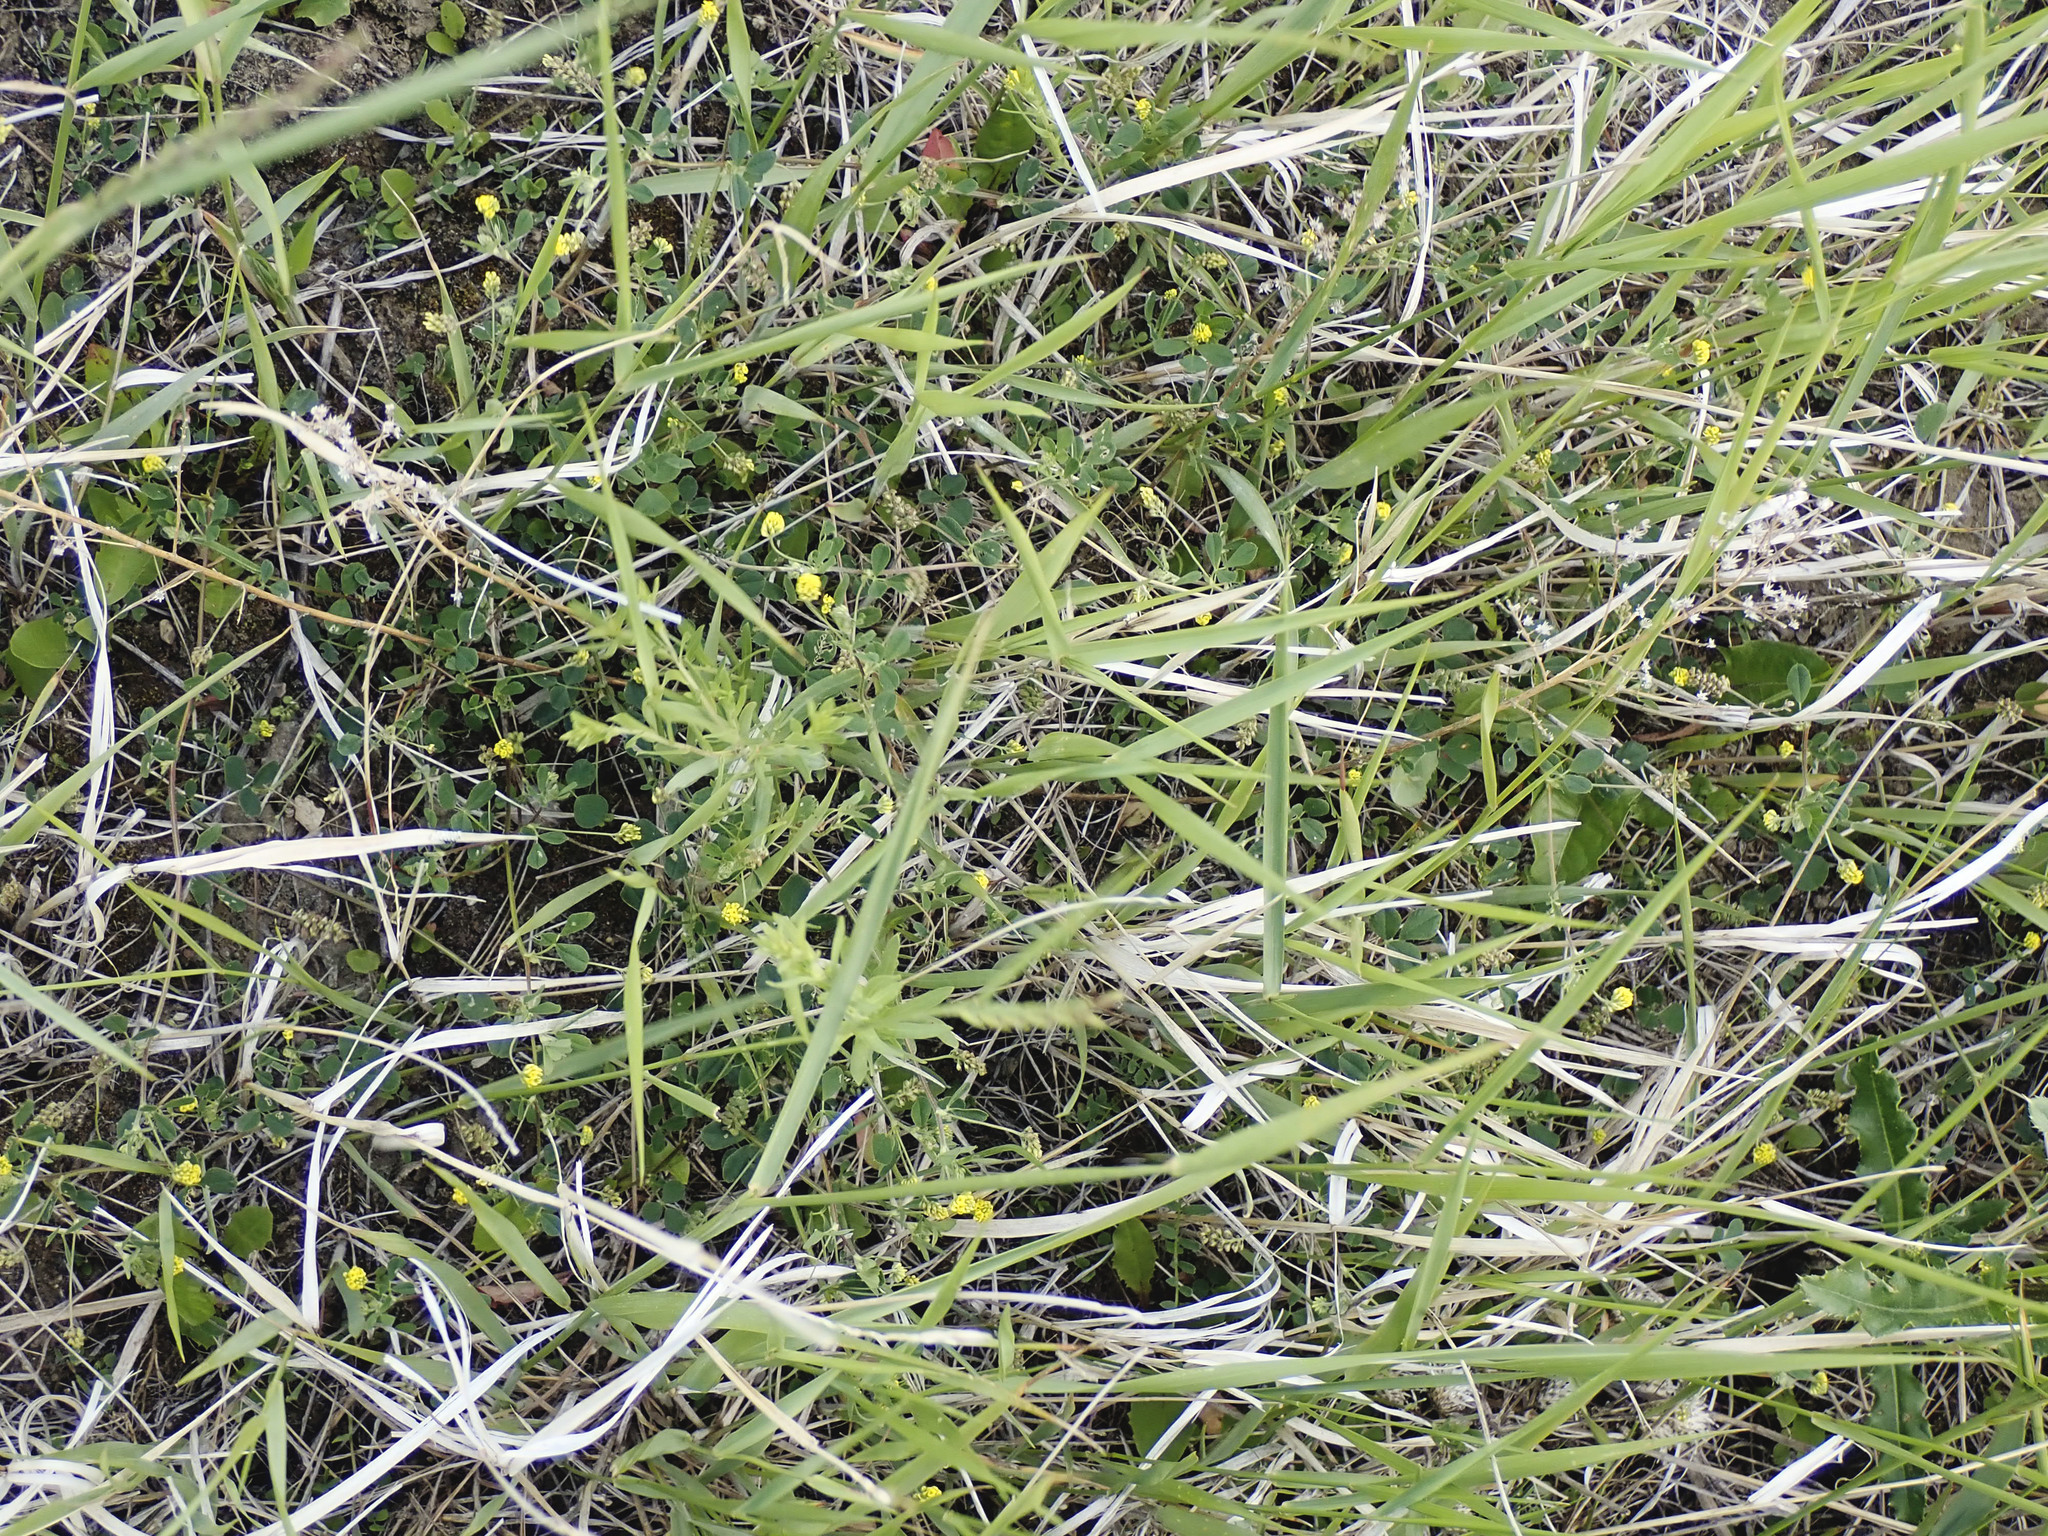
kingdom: Plantae
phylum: Tracheophyta
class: Magnoliopsida
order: Fabales
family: Fabaceae
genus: Medicago
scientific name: Medicago lupulina
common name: Black medick
